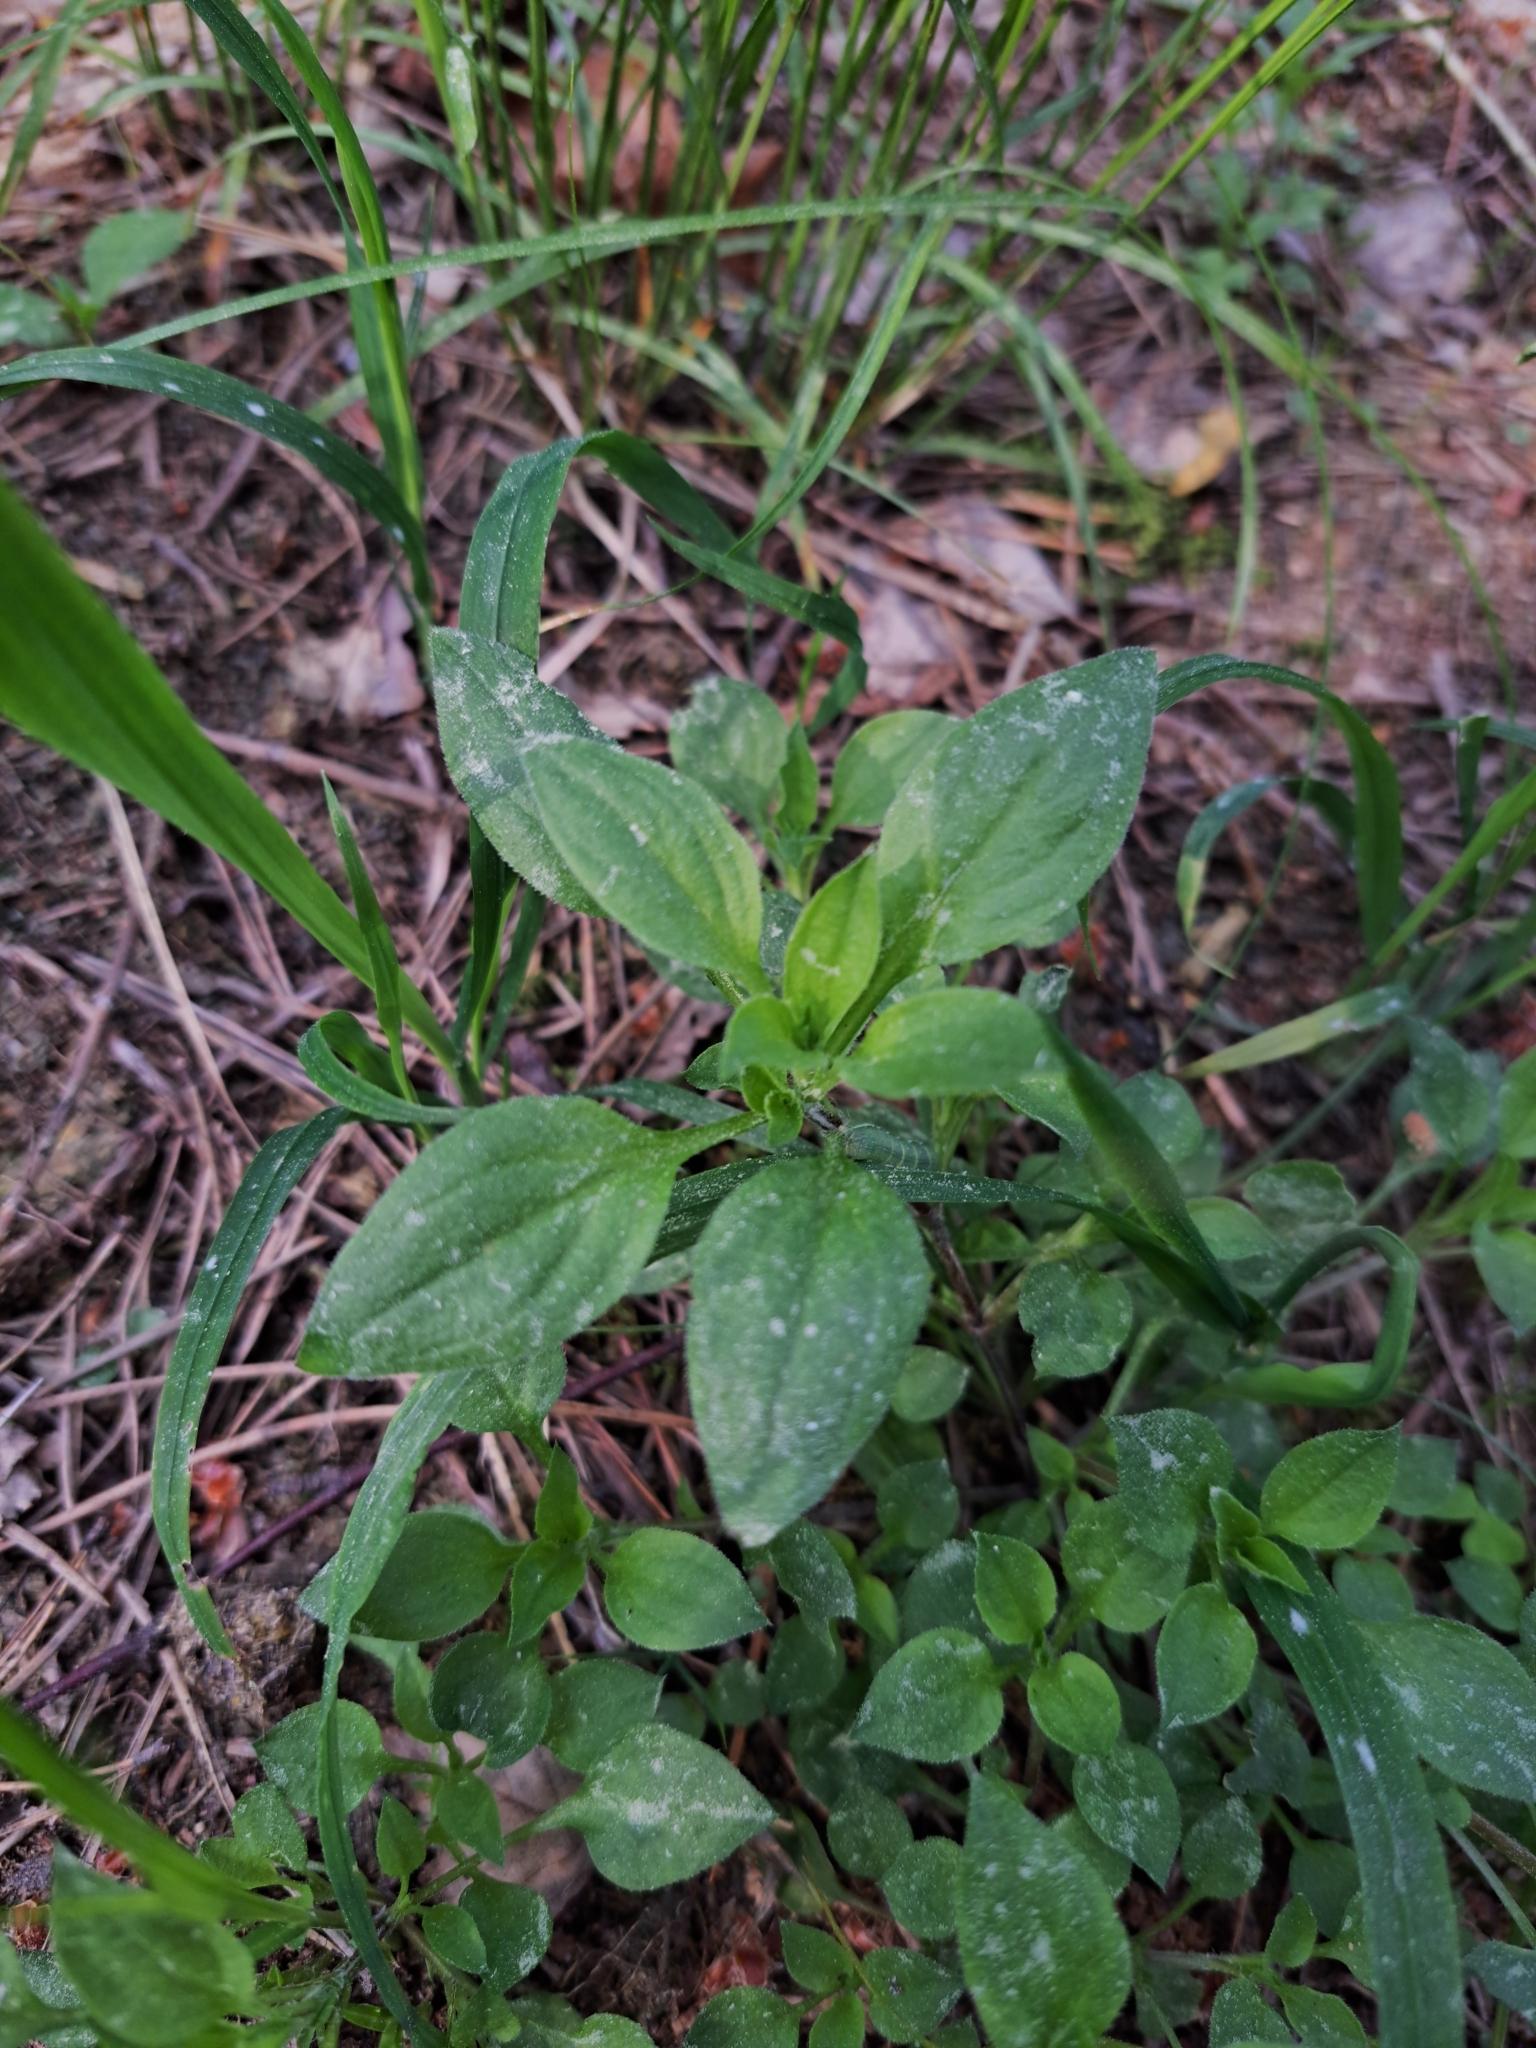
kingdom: Plantae
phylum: Tracheophyta
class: Magnoliopsida
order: Caryophyllales
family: Caryophyllaceae
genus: Moehringia
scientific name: Moehringia trinervia
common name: Three-nerved sandwort
